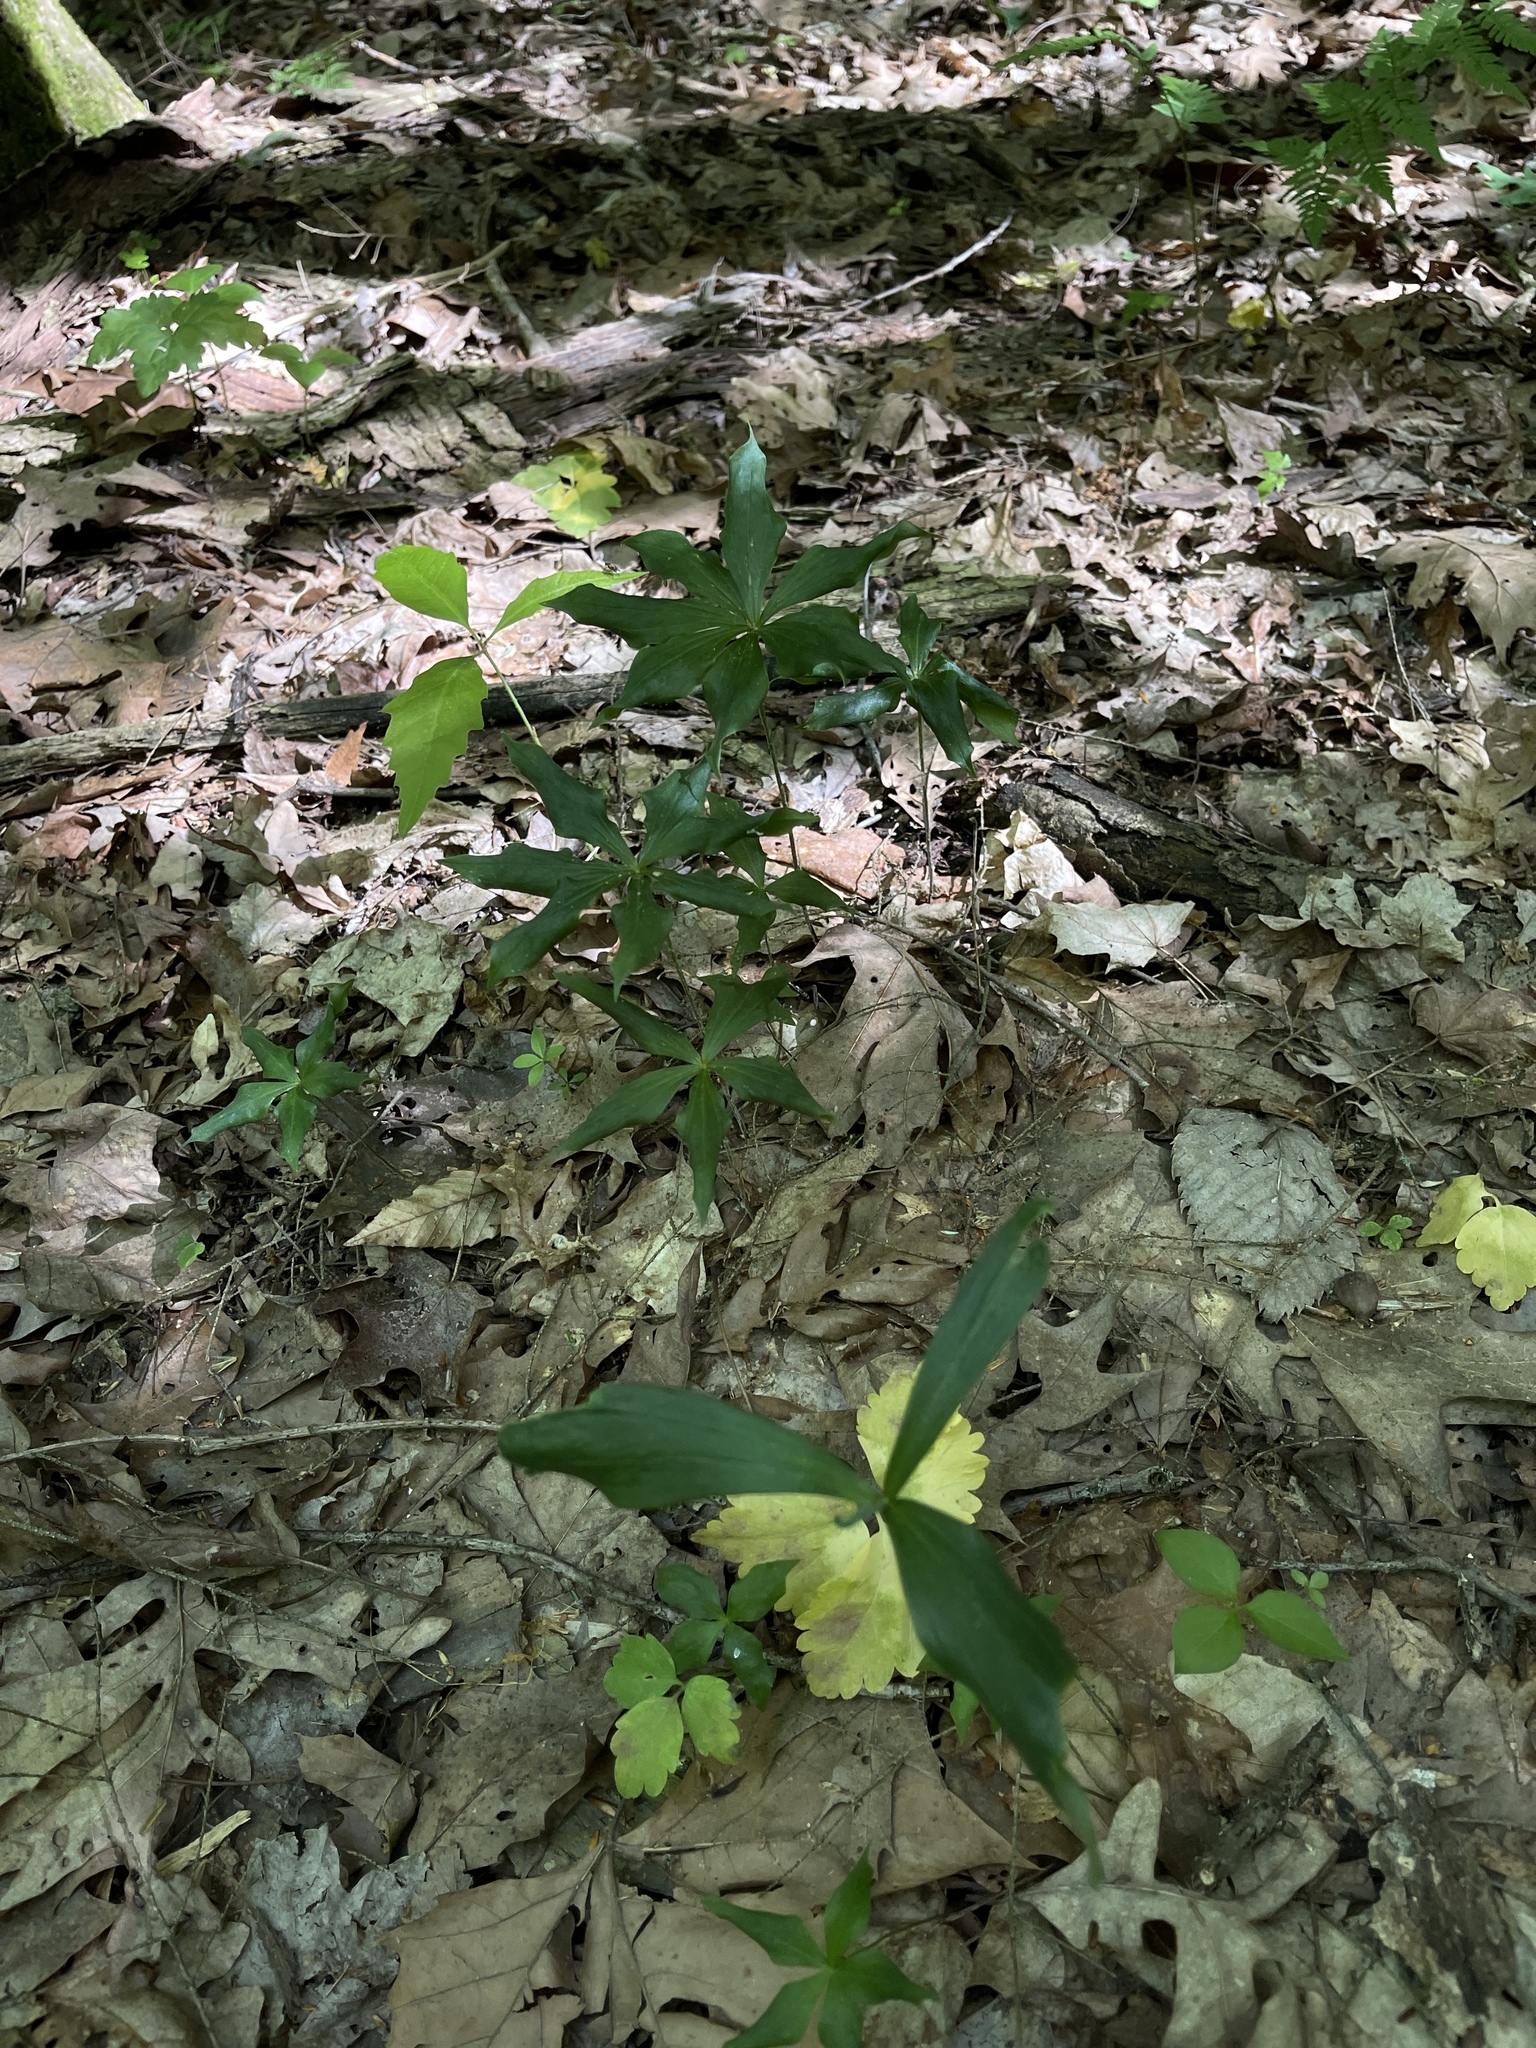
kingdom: Plantae
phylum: Tracheophyta
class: Liliopsida
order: Liliales
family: Liliaceae
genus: Medeola
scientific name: Medeola virginiana
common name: Indian cucumber-root
